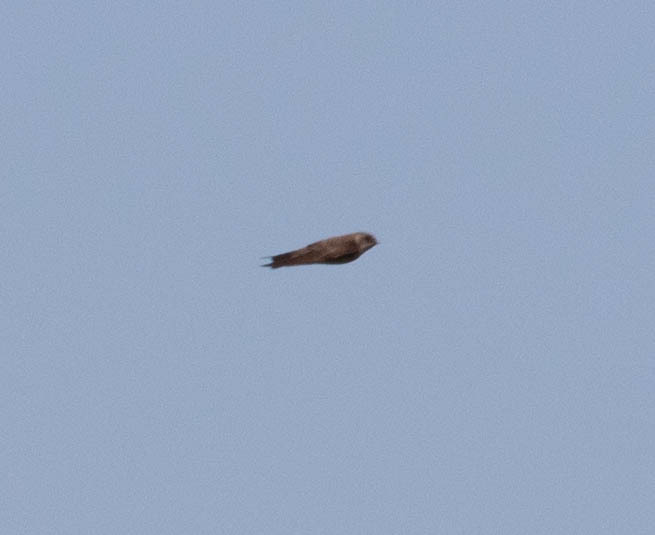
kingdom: Animalia
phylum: Chordata
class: Aves
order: Passeriformes
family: Hirundinidae
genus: Stelgidopteryx
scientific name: Stelgidopteryx serripennis
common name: Northern rough-winged swallow
